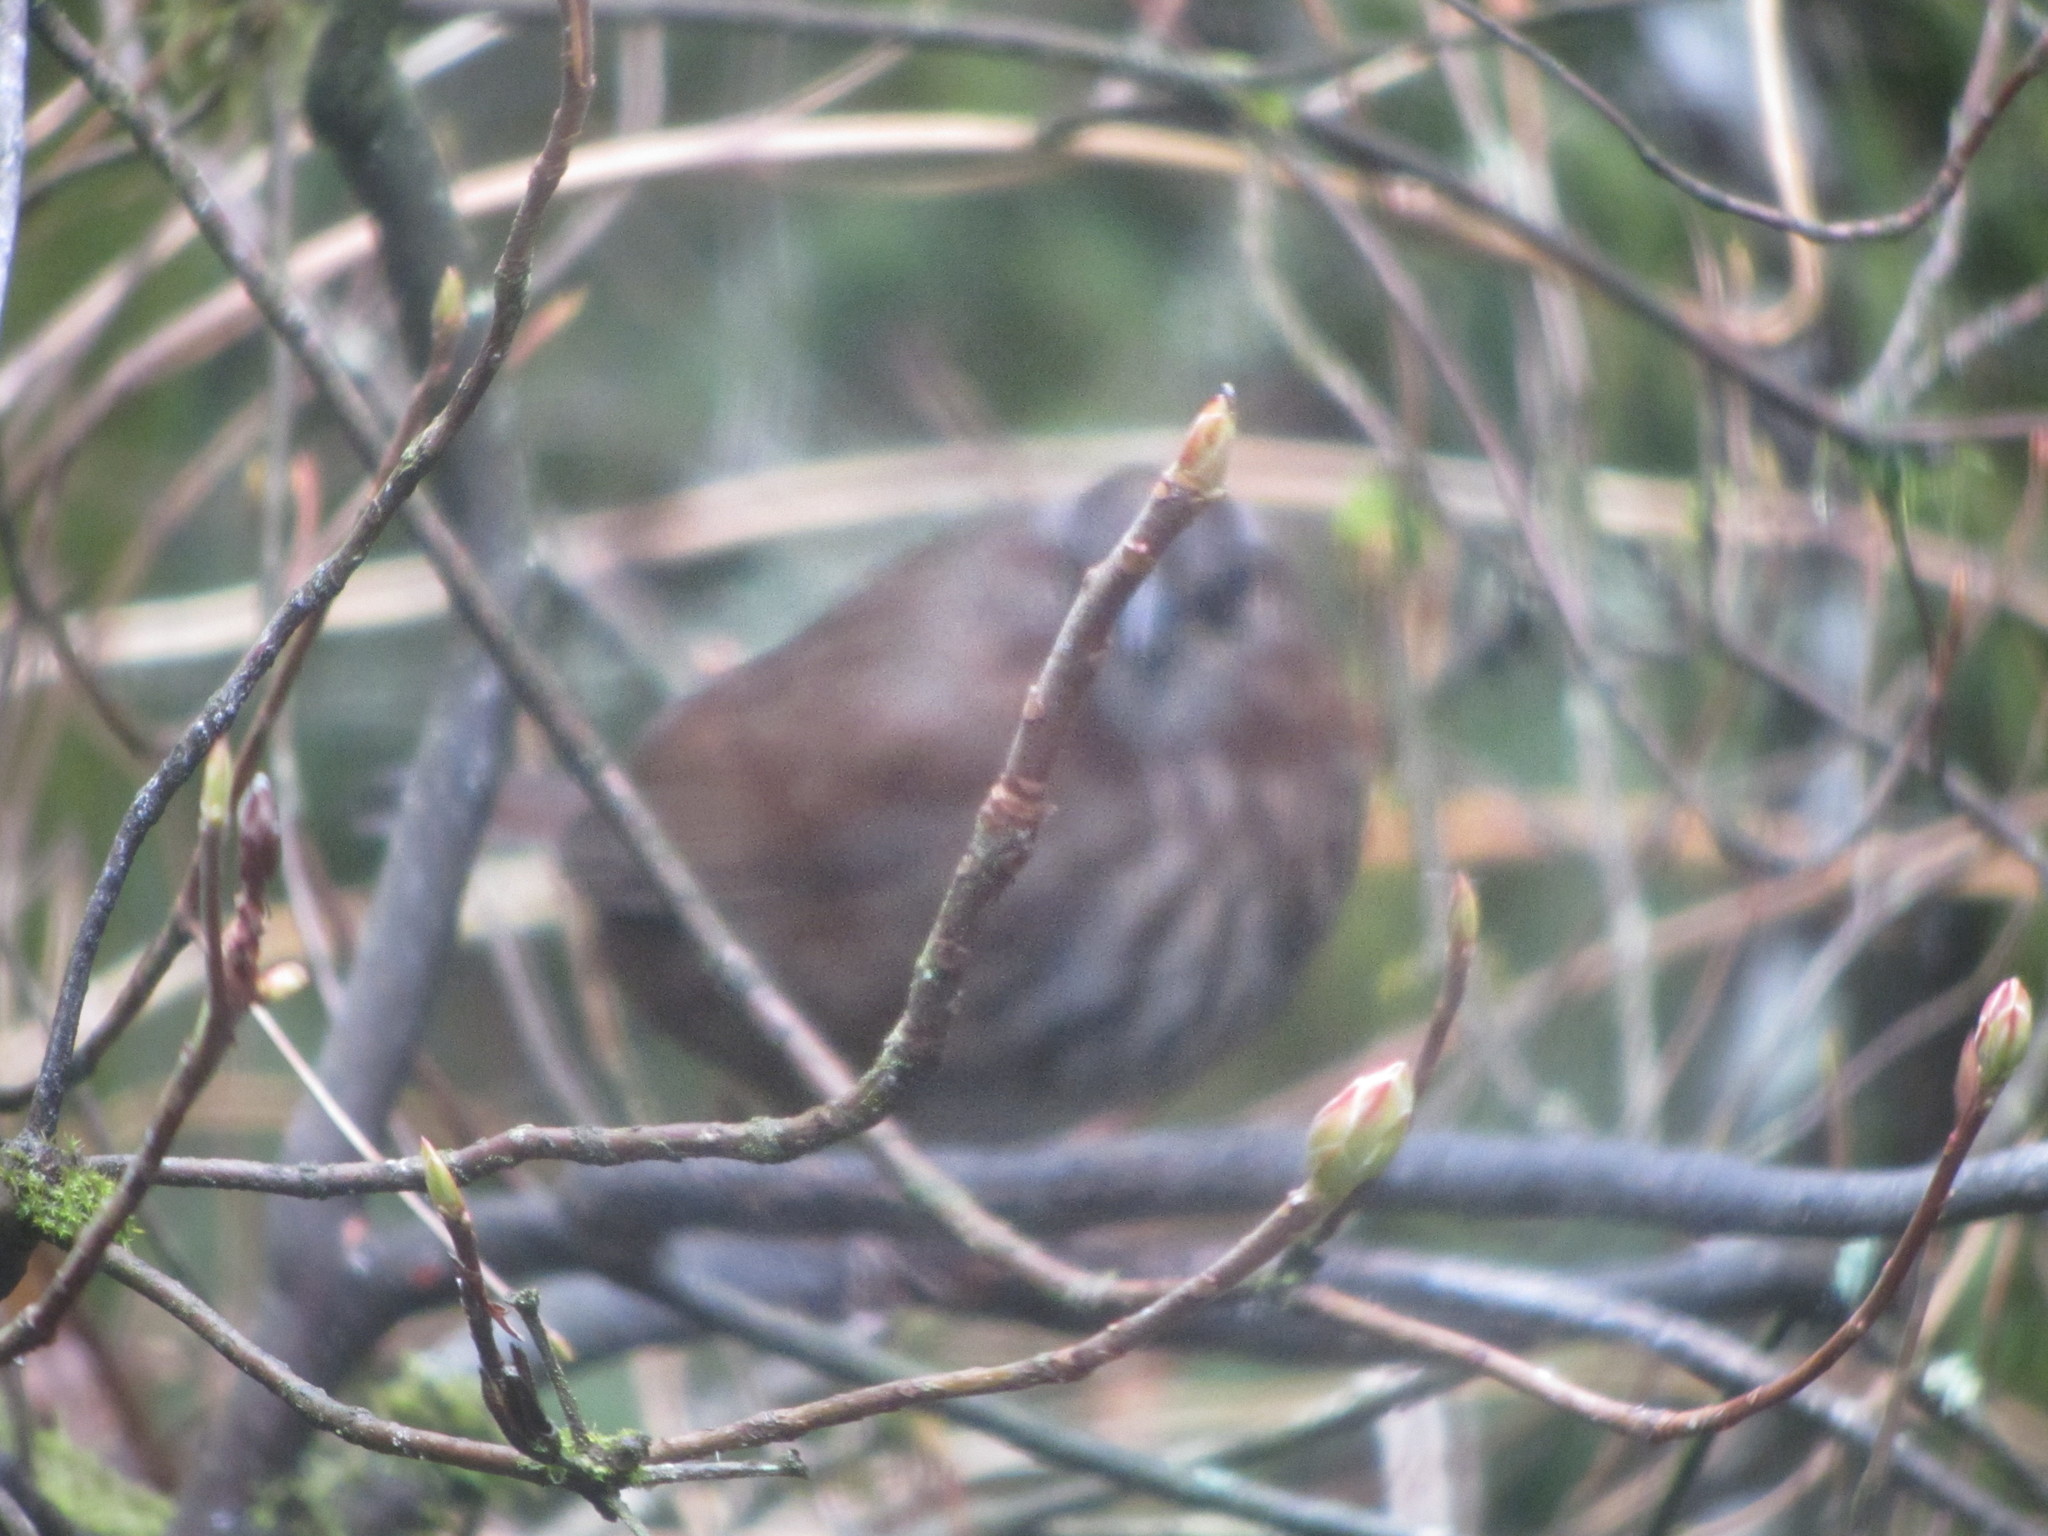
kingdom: Animalia
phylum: Chordata
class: Aves
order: Passeriformes
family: Passerellidae
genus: Melospiza
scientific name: Melospiza melodia
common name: Song sparrow
